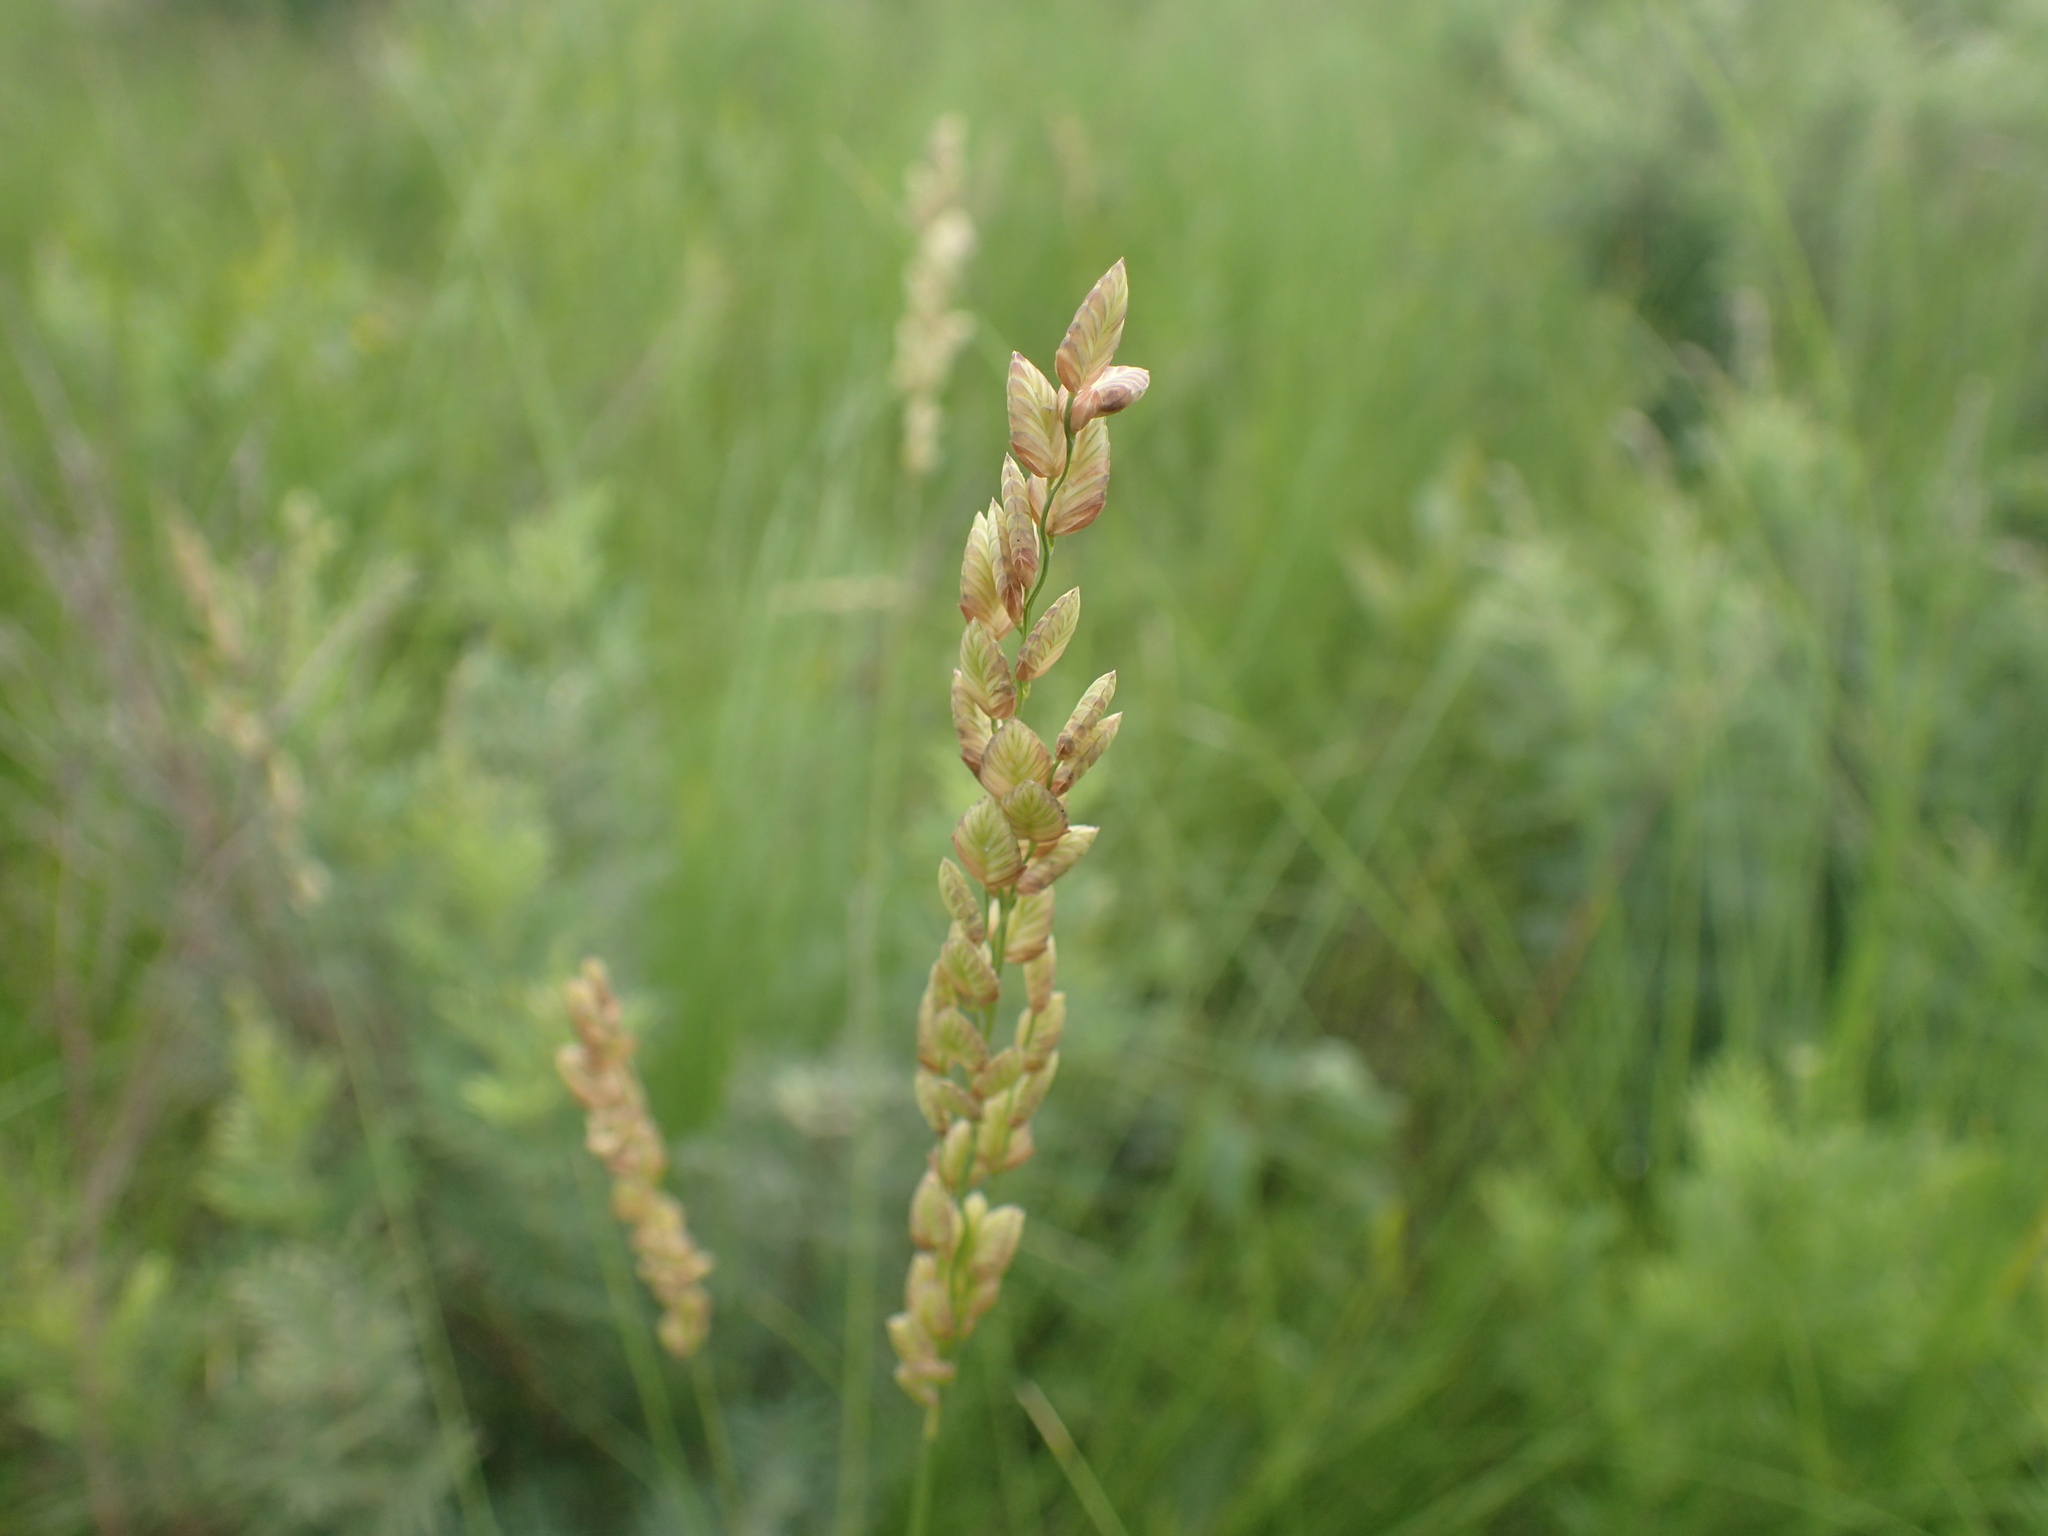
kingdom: Plantae
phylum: Tracheophyta
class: Liliopsida
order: Poales
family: Poaceae
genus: Eragrostis
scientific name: Eragrostis capensis
